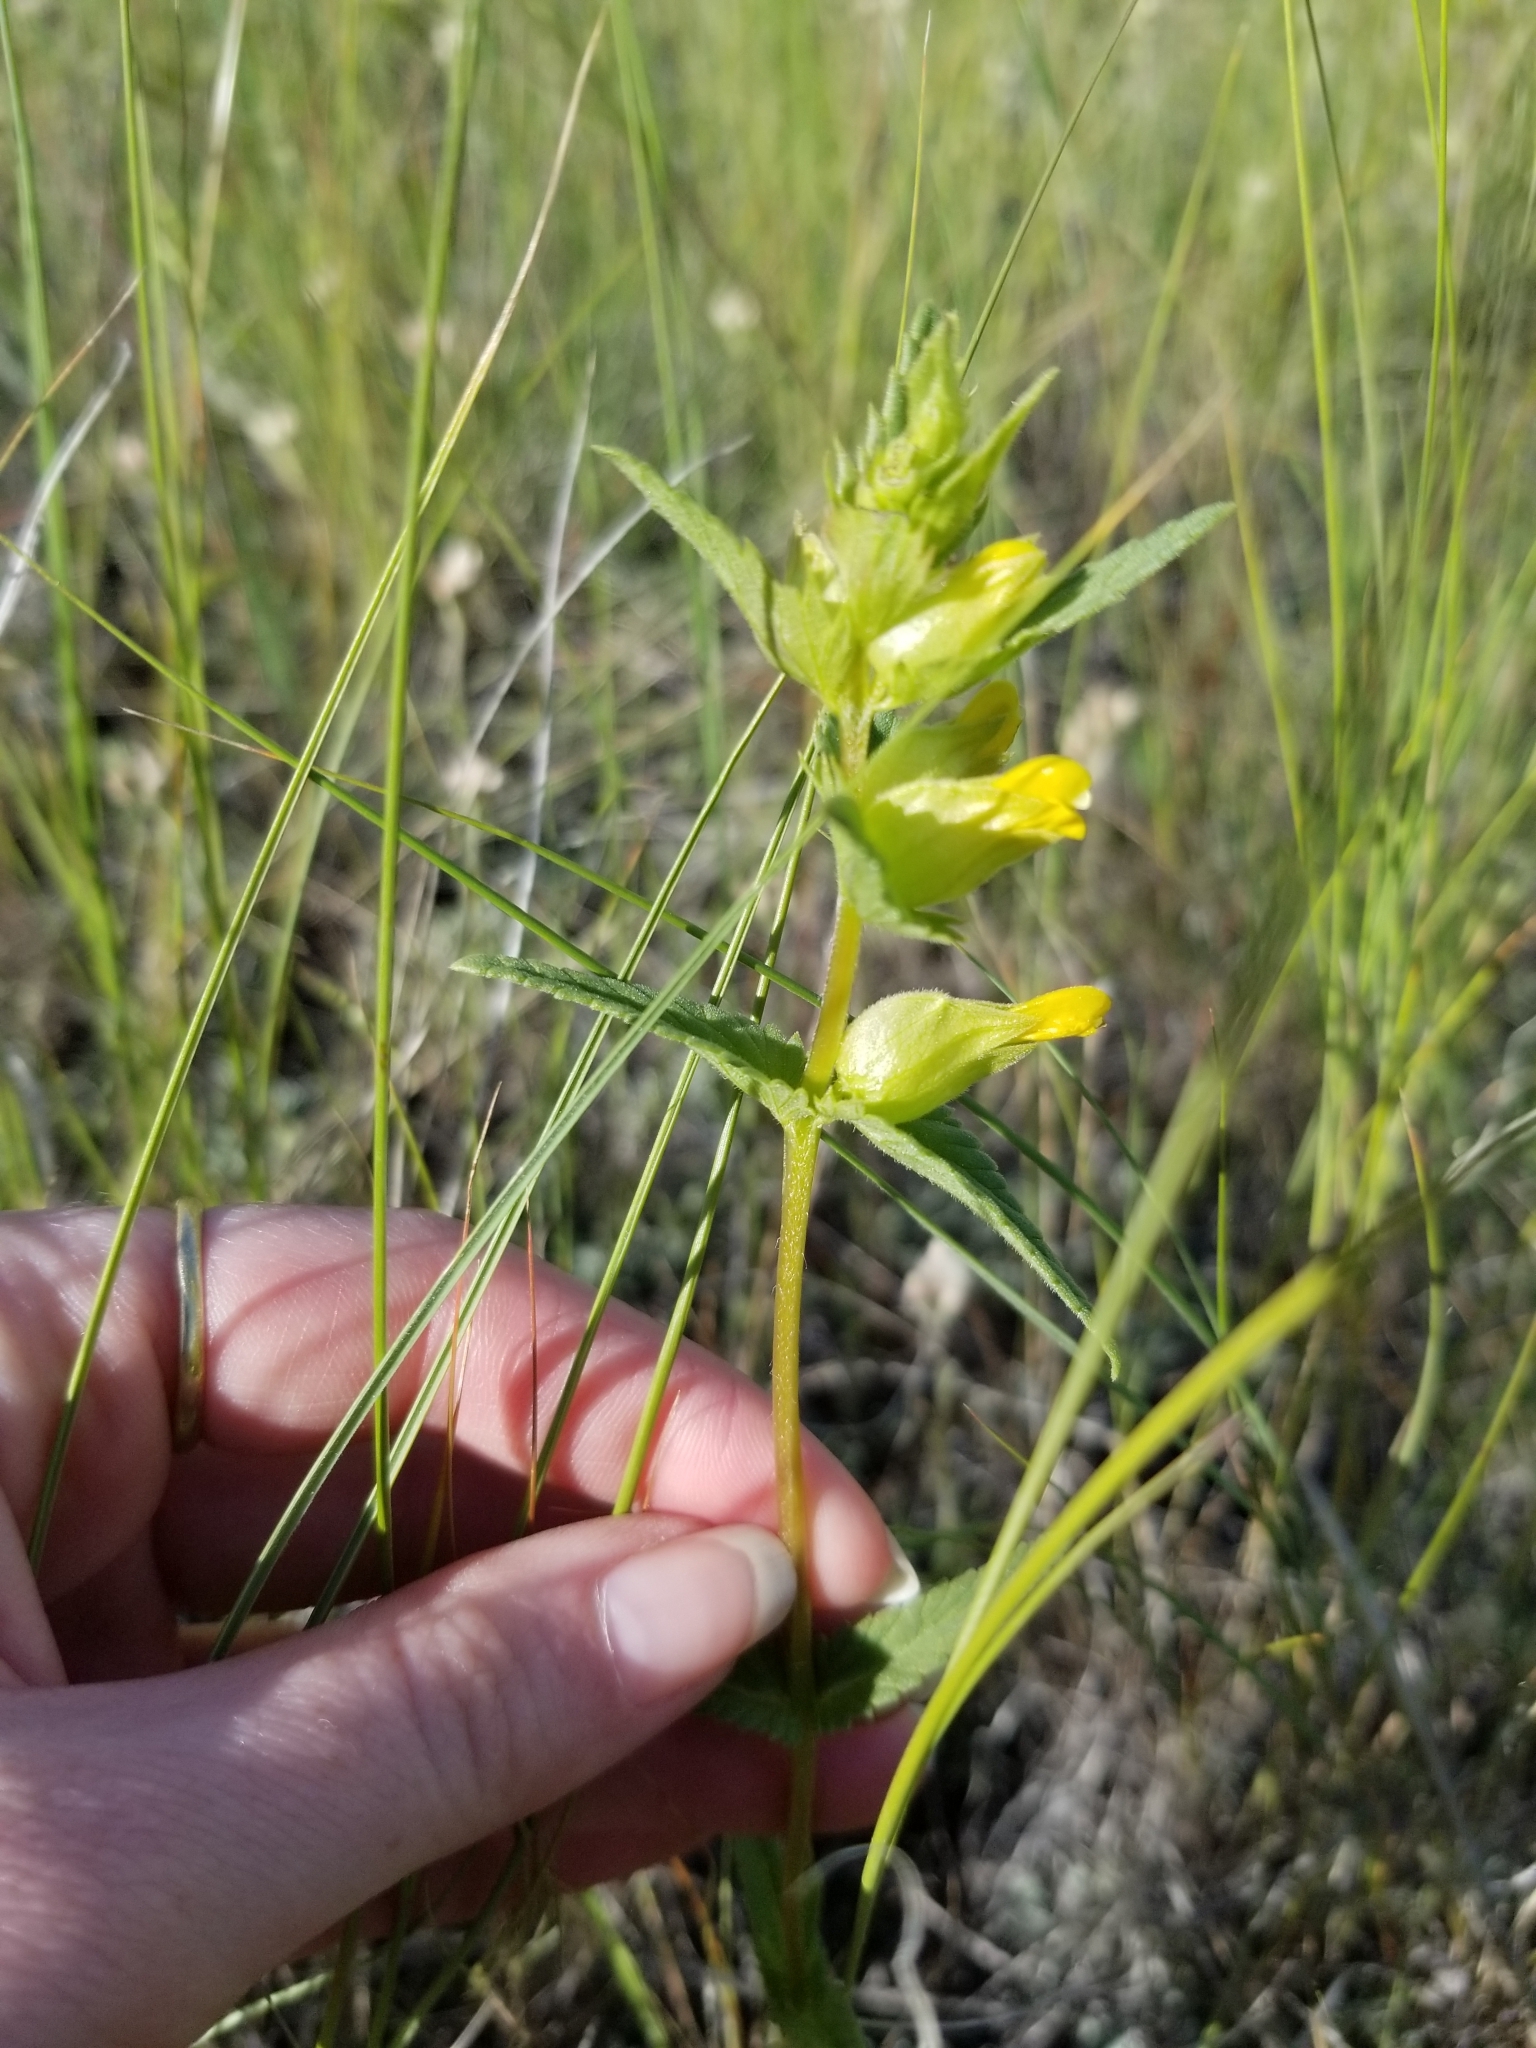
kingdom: Plantae
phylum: Tracheophyta
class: Magnoliopsida
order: Lamiales
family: Orobanchaceae
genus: Rhinanthus
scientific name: Rhinanthus groenlandicus
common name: Little yellow rattle
